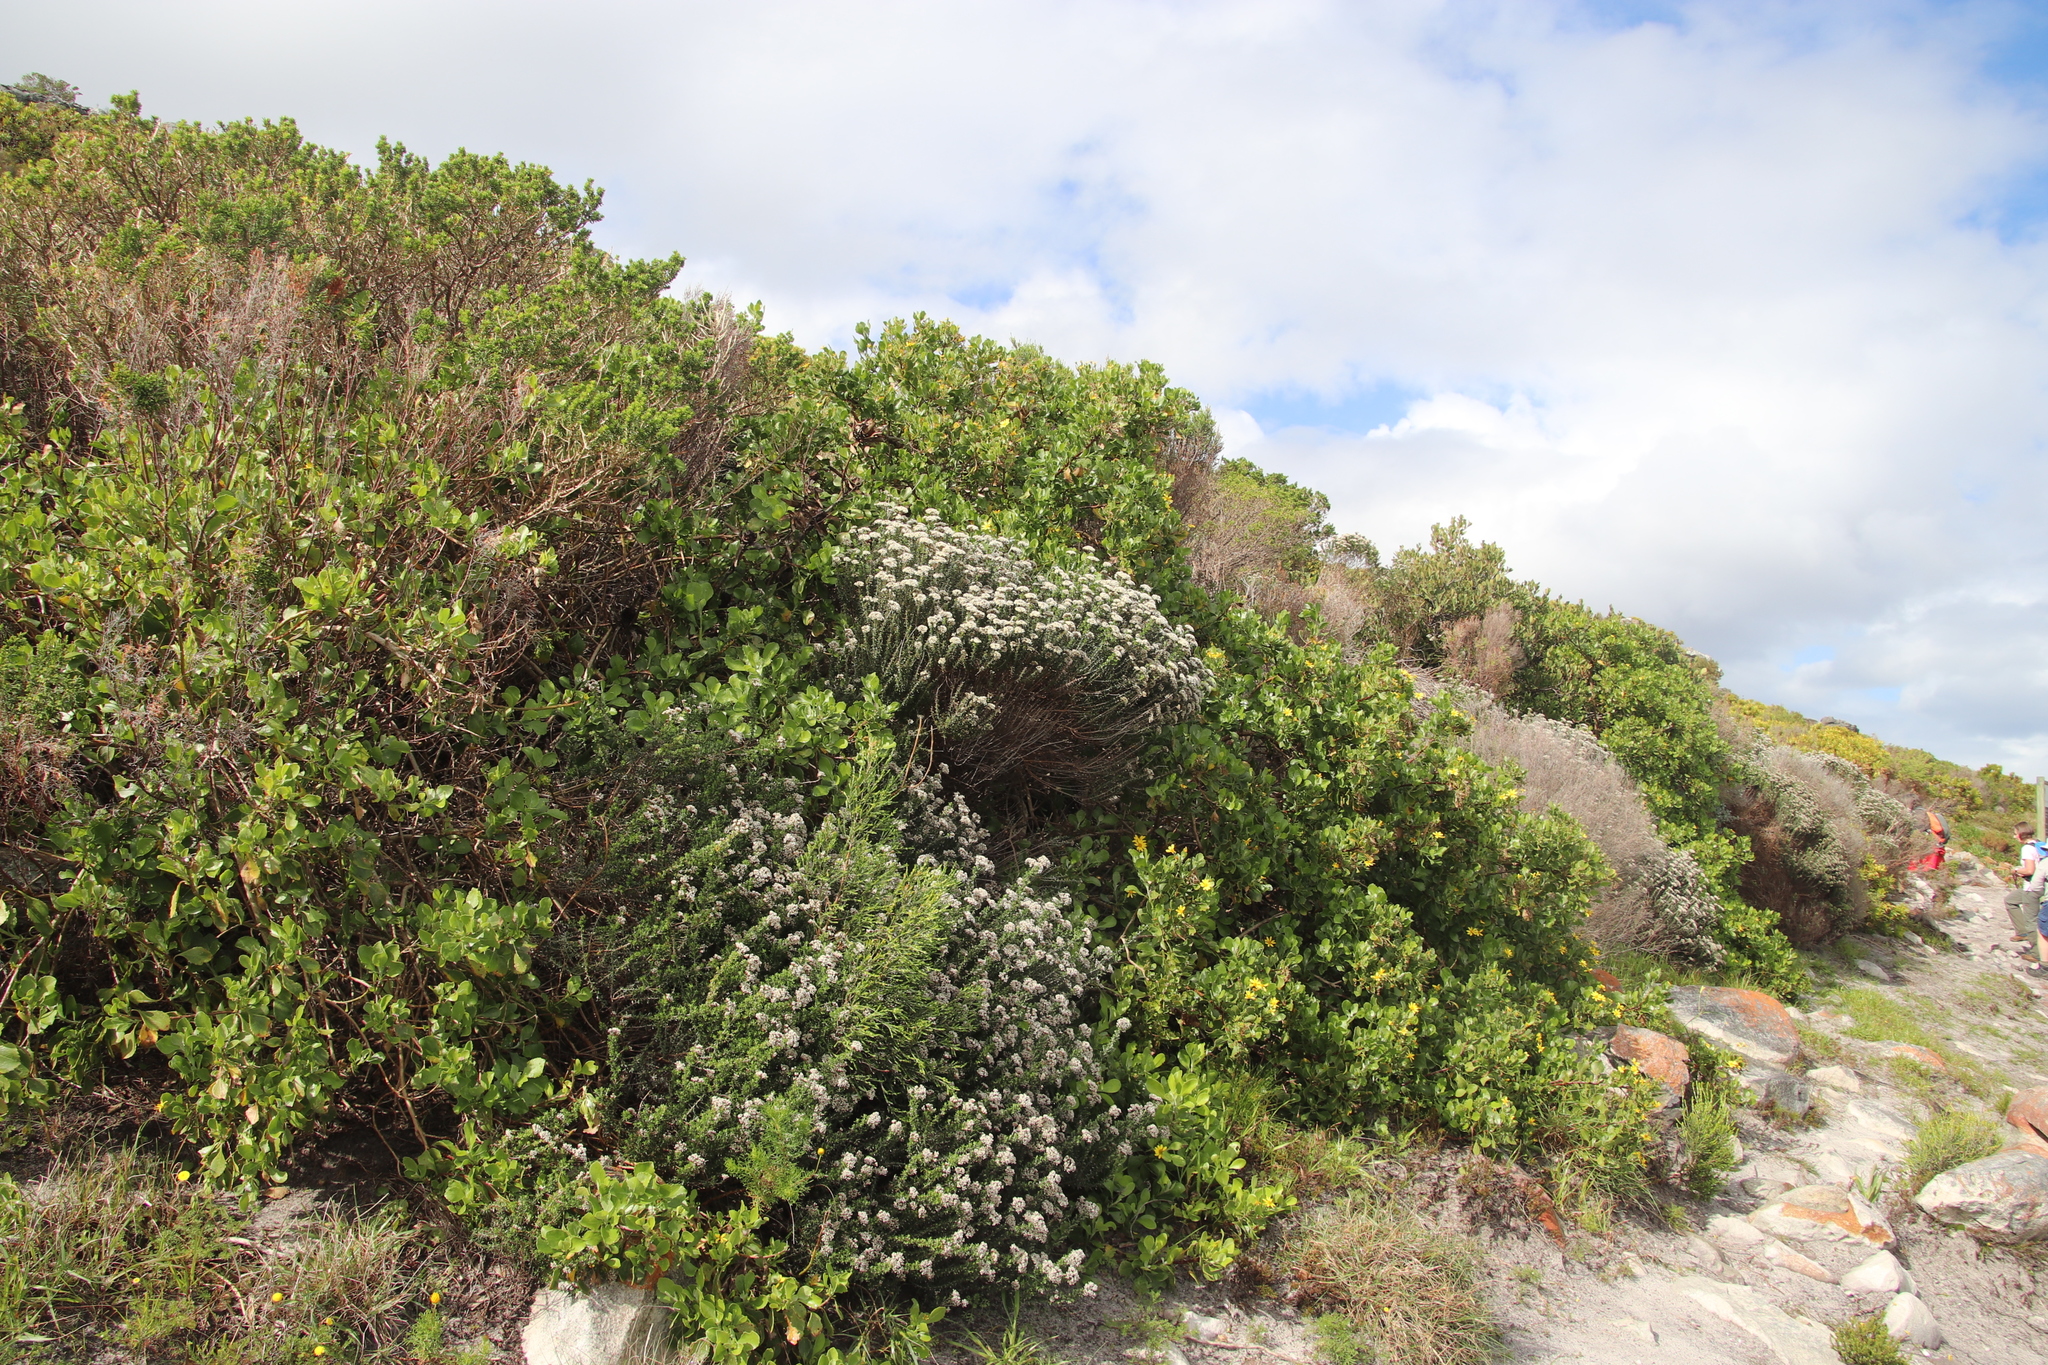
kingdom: Plantae
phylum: Tracheophyta
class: Magnoliopsida
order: Asterales
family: Asteraceae
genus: Metalasia
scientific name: Metalasia densa
